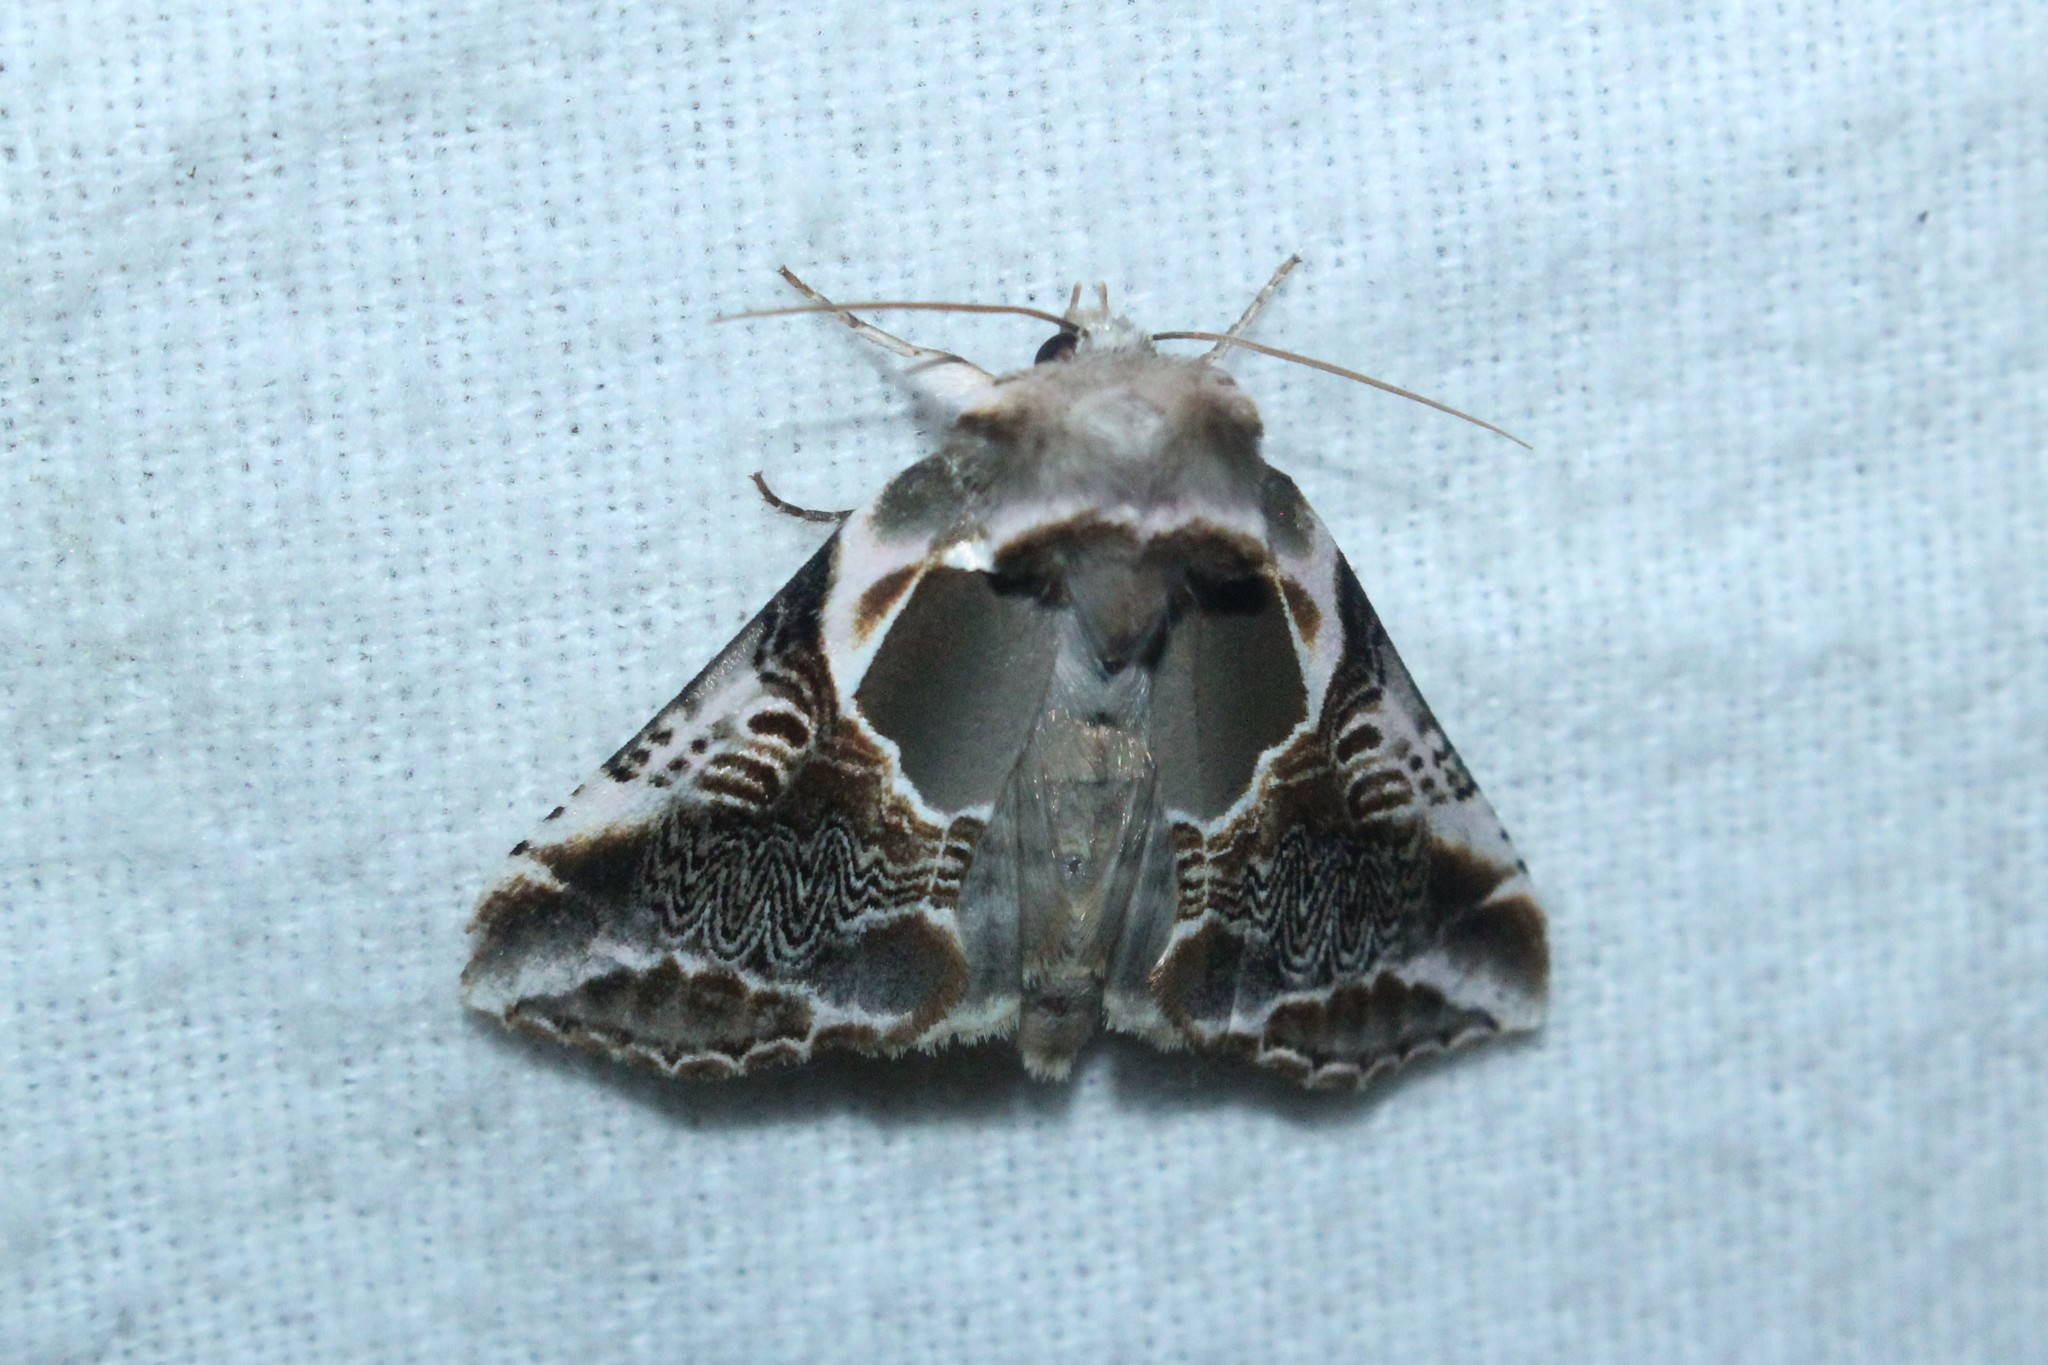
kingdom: Animalia
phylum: Arthropoda
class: Insecta
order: Lepidoptera
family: Drepanidae
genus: Habrosyne
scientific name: Habrosyne scripta
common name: Lettered habrosyne moth
